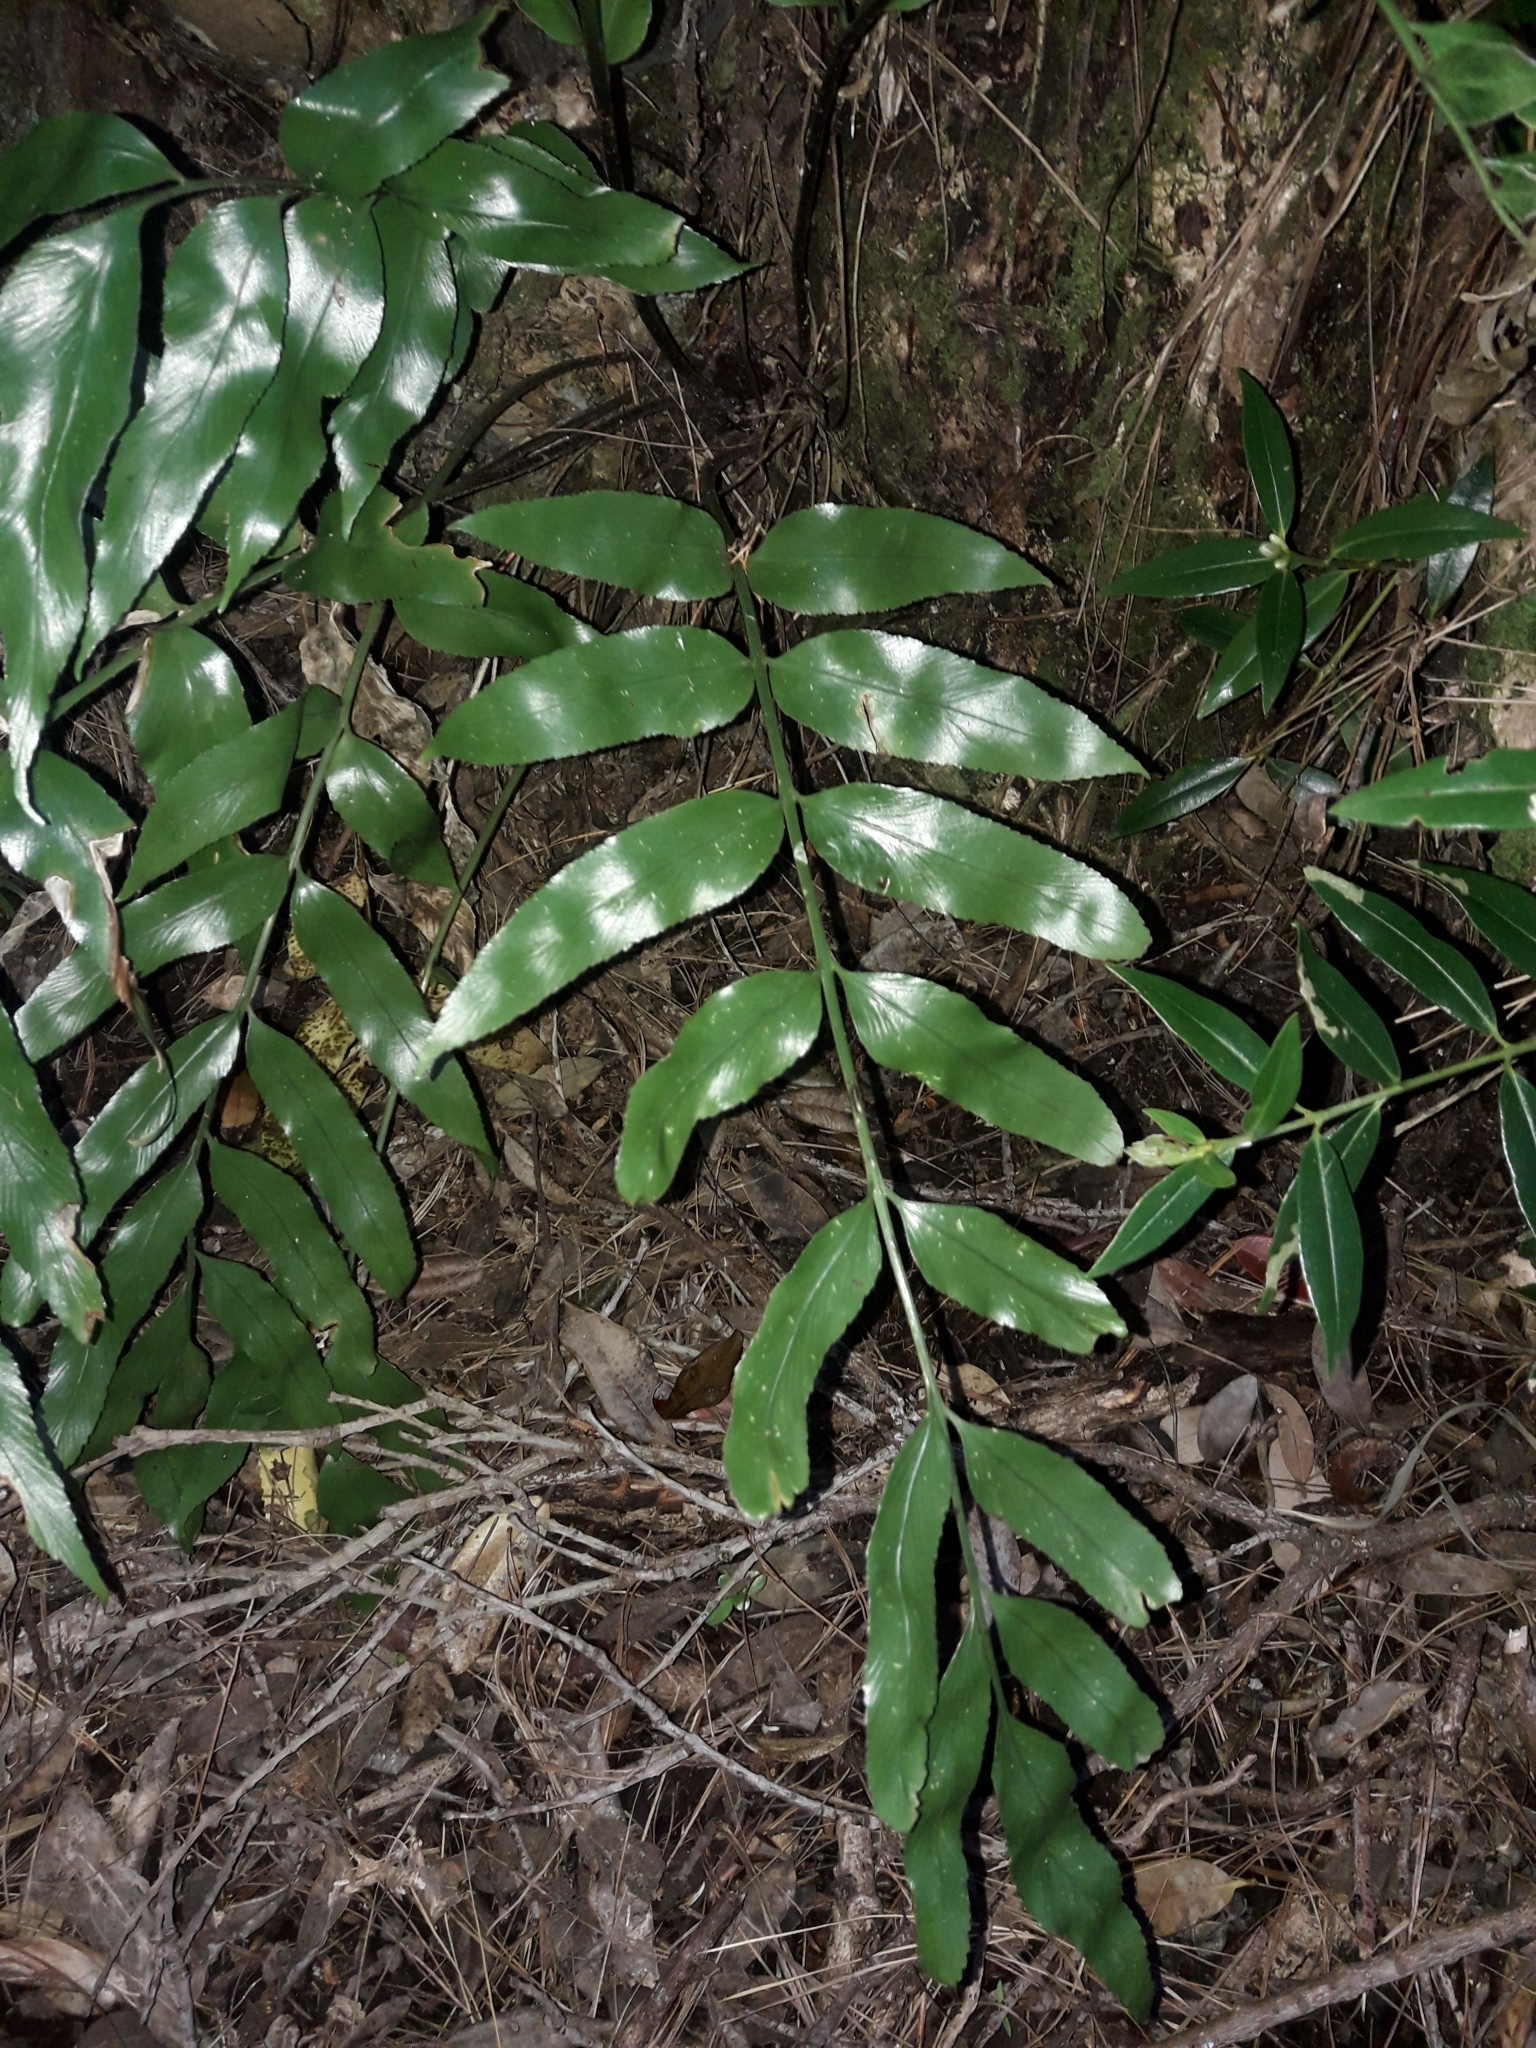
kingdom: Plantae
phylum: Tracheophyta
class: Polypodiopsida
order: Polypodiales
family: Aspleniaceae
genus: Asplenium
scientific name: Asplenium oblongifolium
